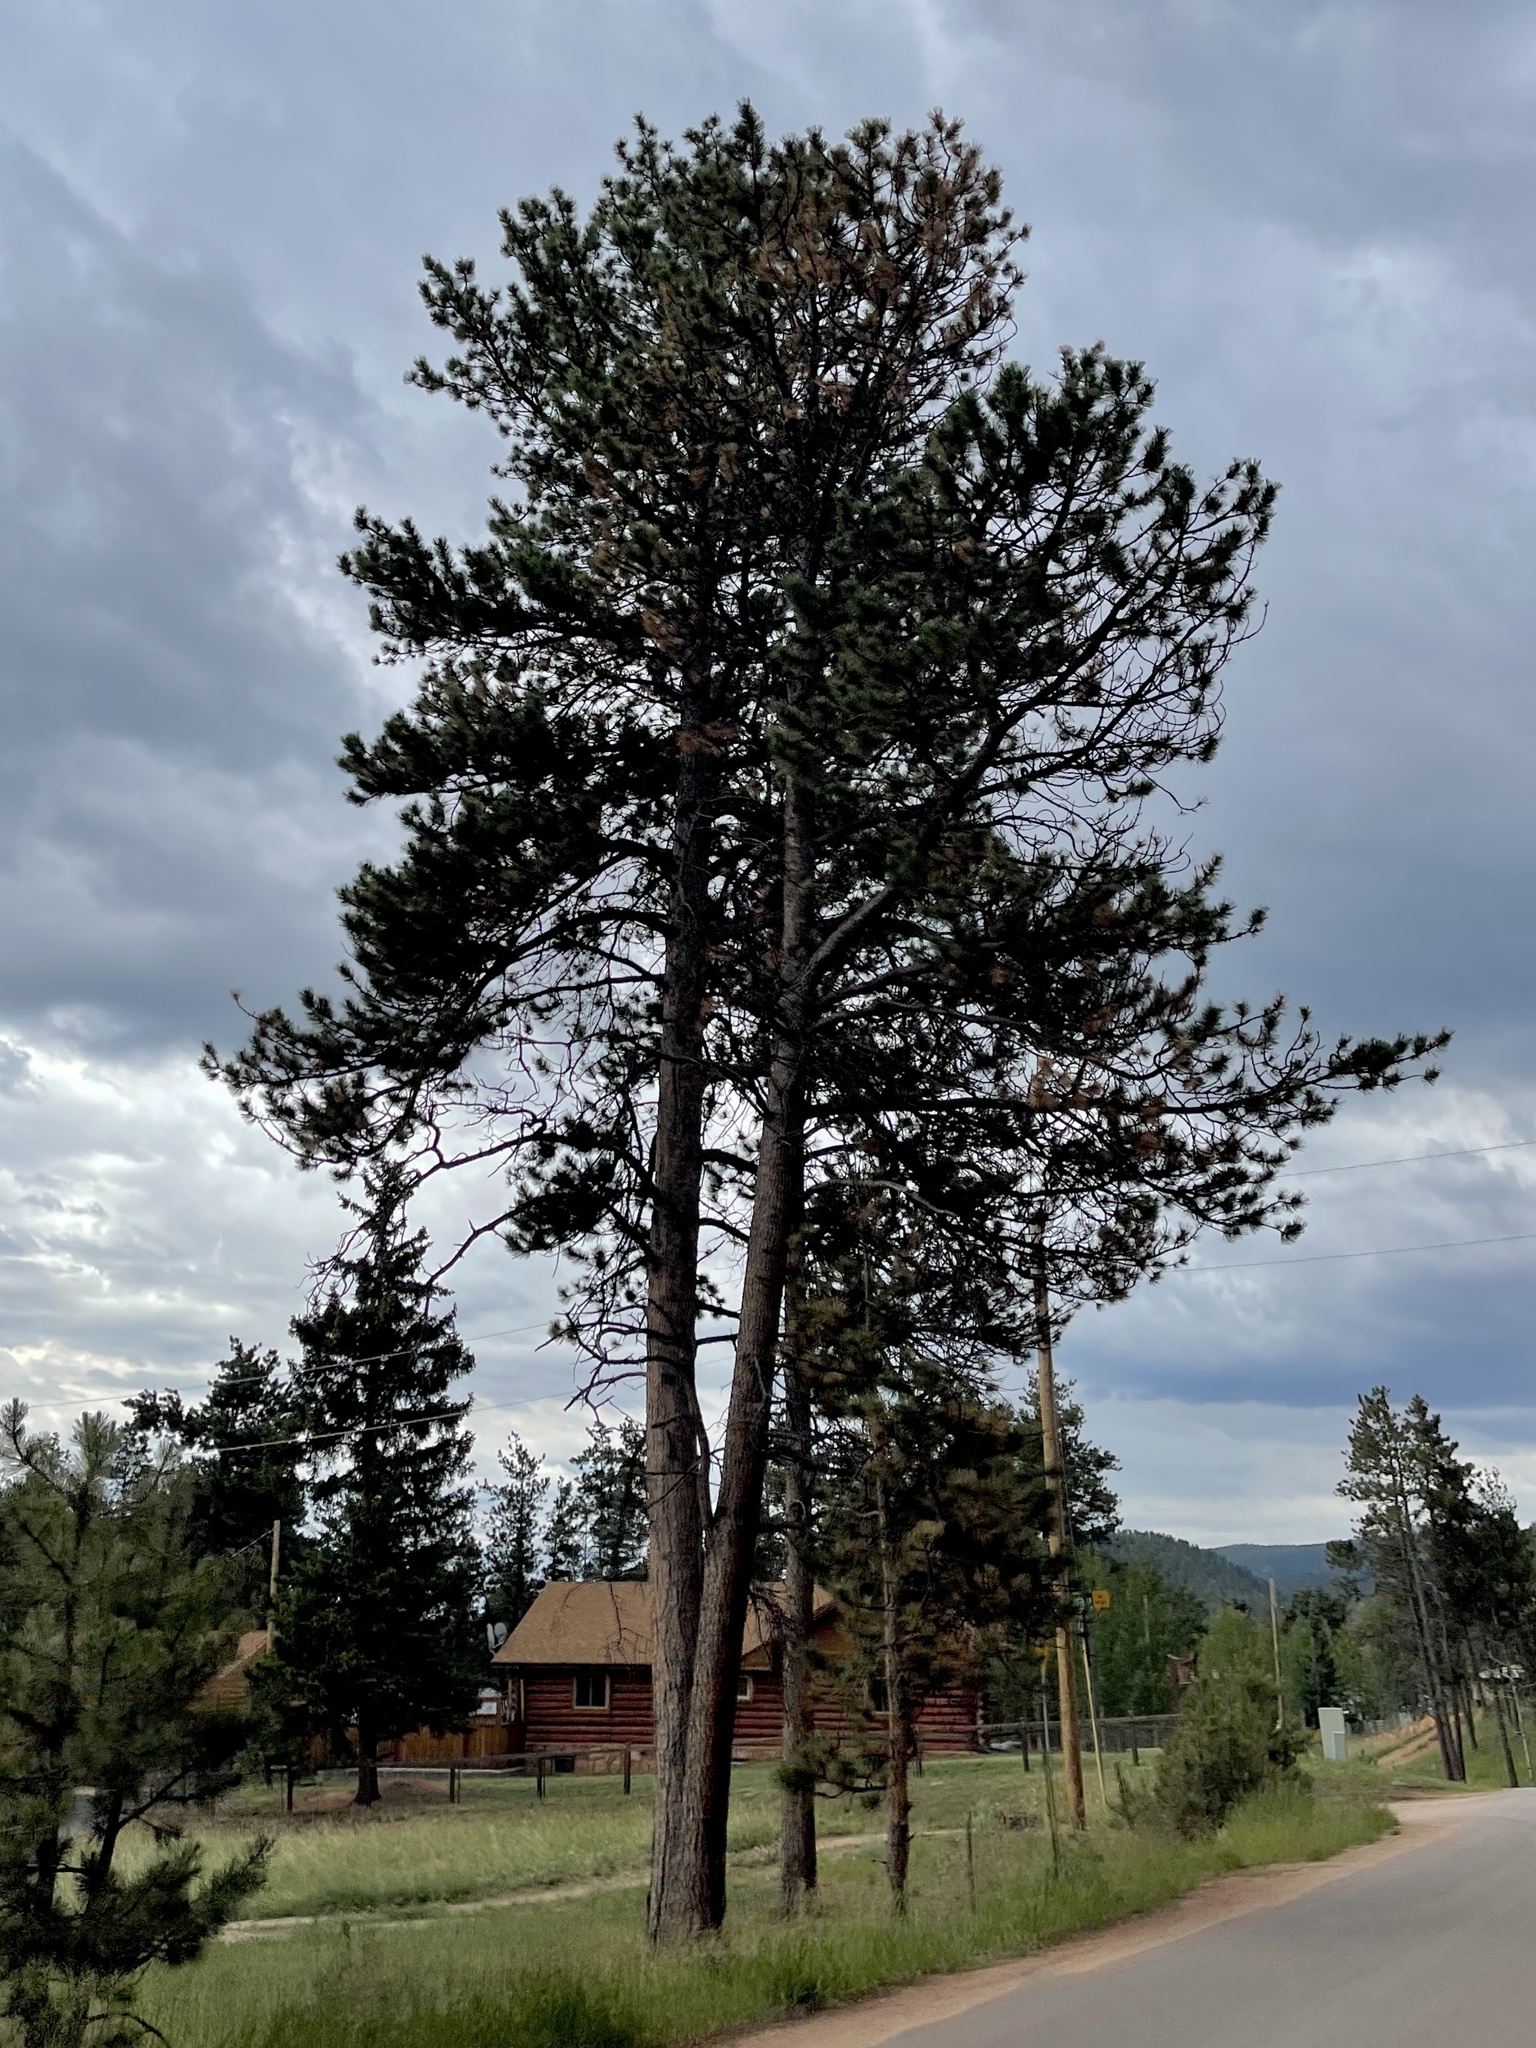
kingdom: Plantae
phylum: Tracheophyta
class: Pinopsida
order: Pinales
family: Pinaceae
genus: Pinus
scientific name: Pinus ponderosa
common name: Western yellow-pine
